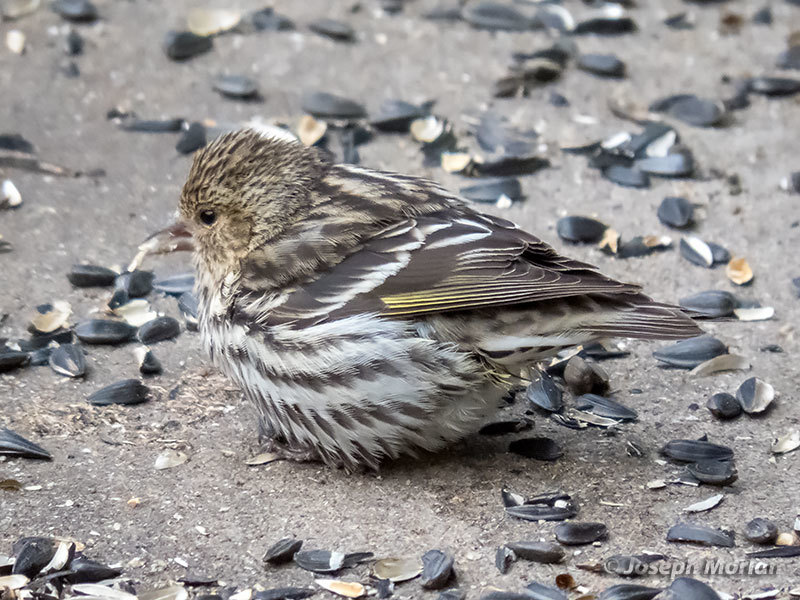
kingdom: Animalia
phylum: Chordata
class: Aves
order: Passeriformes
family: Fringillidae
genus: Spinus
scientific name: Spinus pinus
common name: Pine siskin
